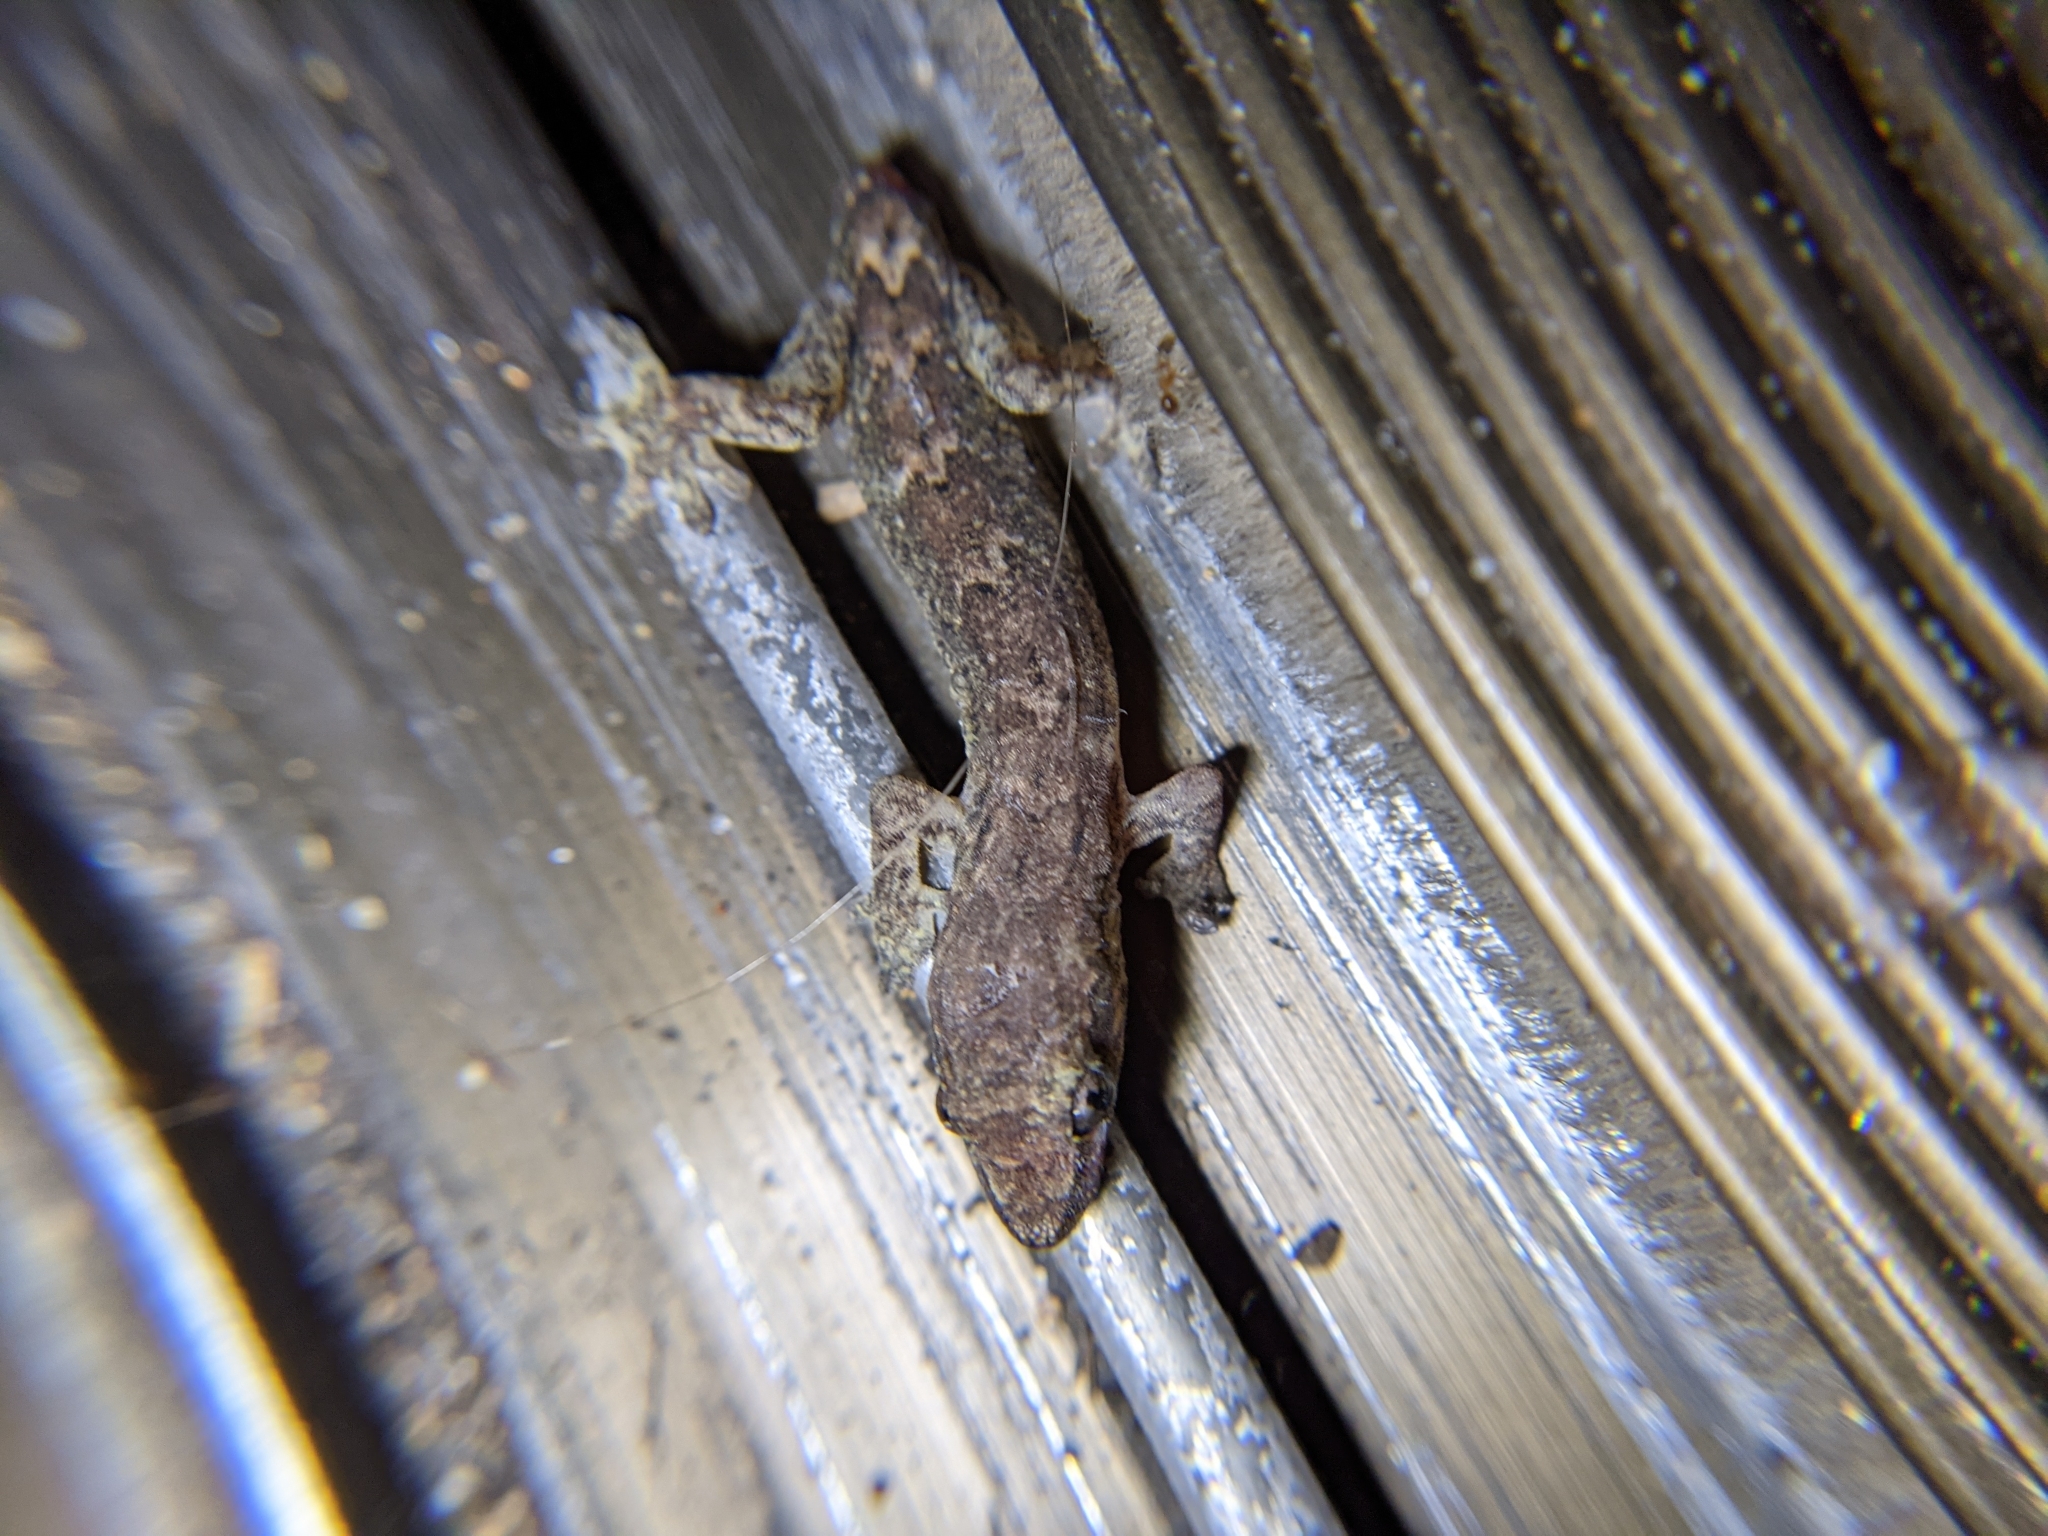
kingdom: Animalia
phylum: Chordata
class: Squamata
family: Gekkonidae
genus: Lepidodactylus
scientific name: Lepidodactylus lugubris
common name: Mourning gecko
